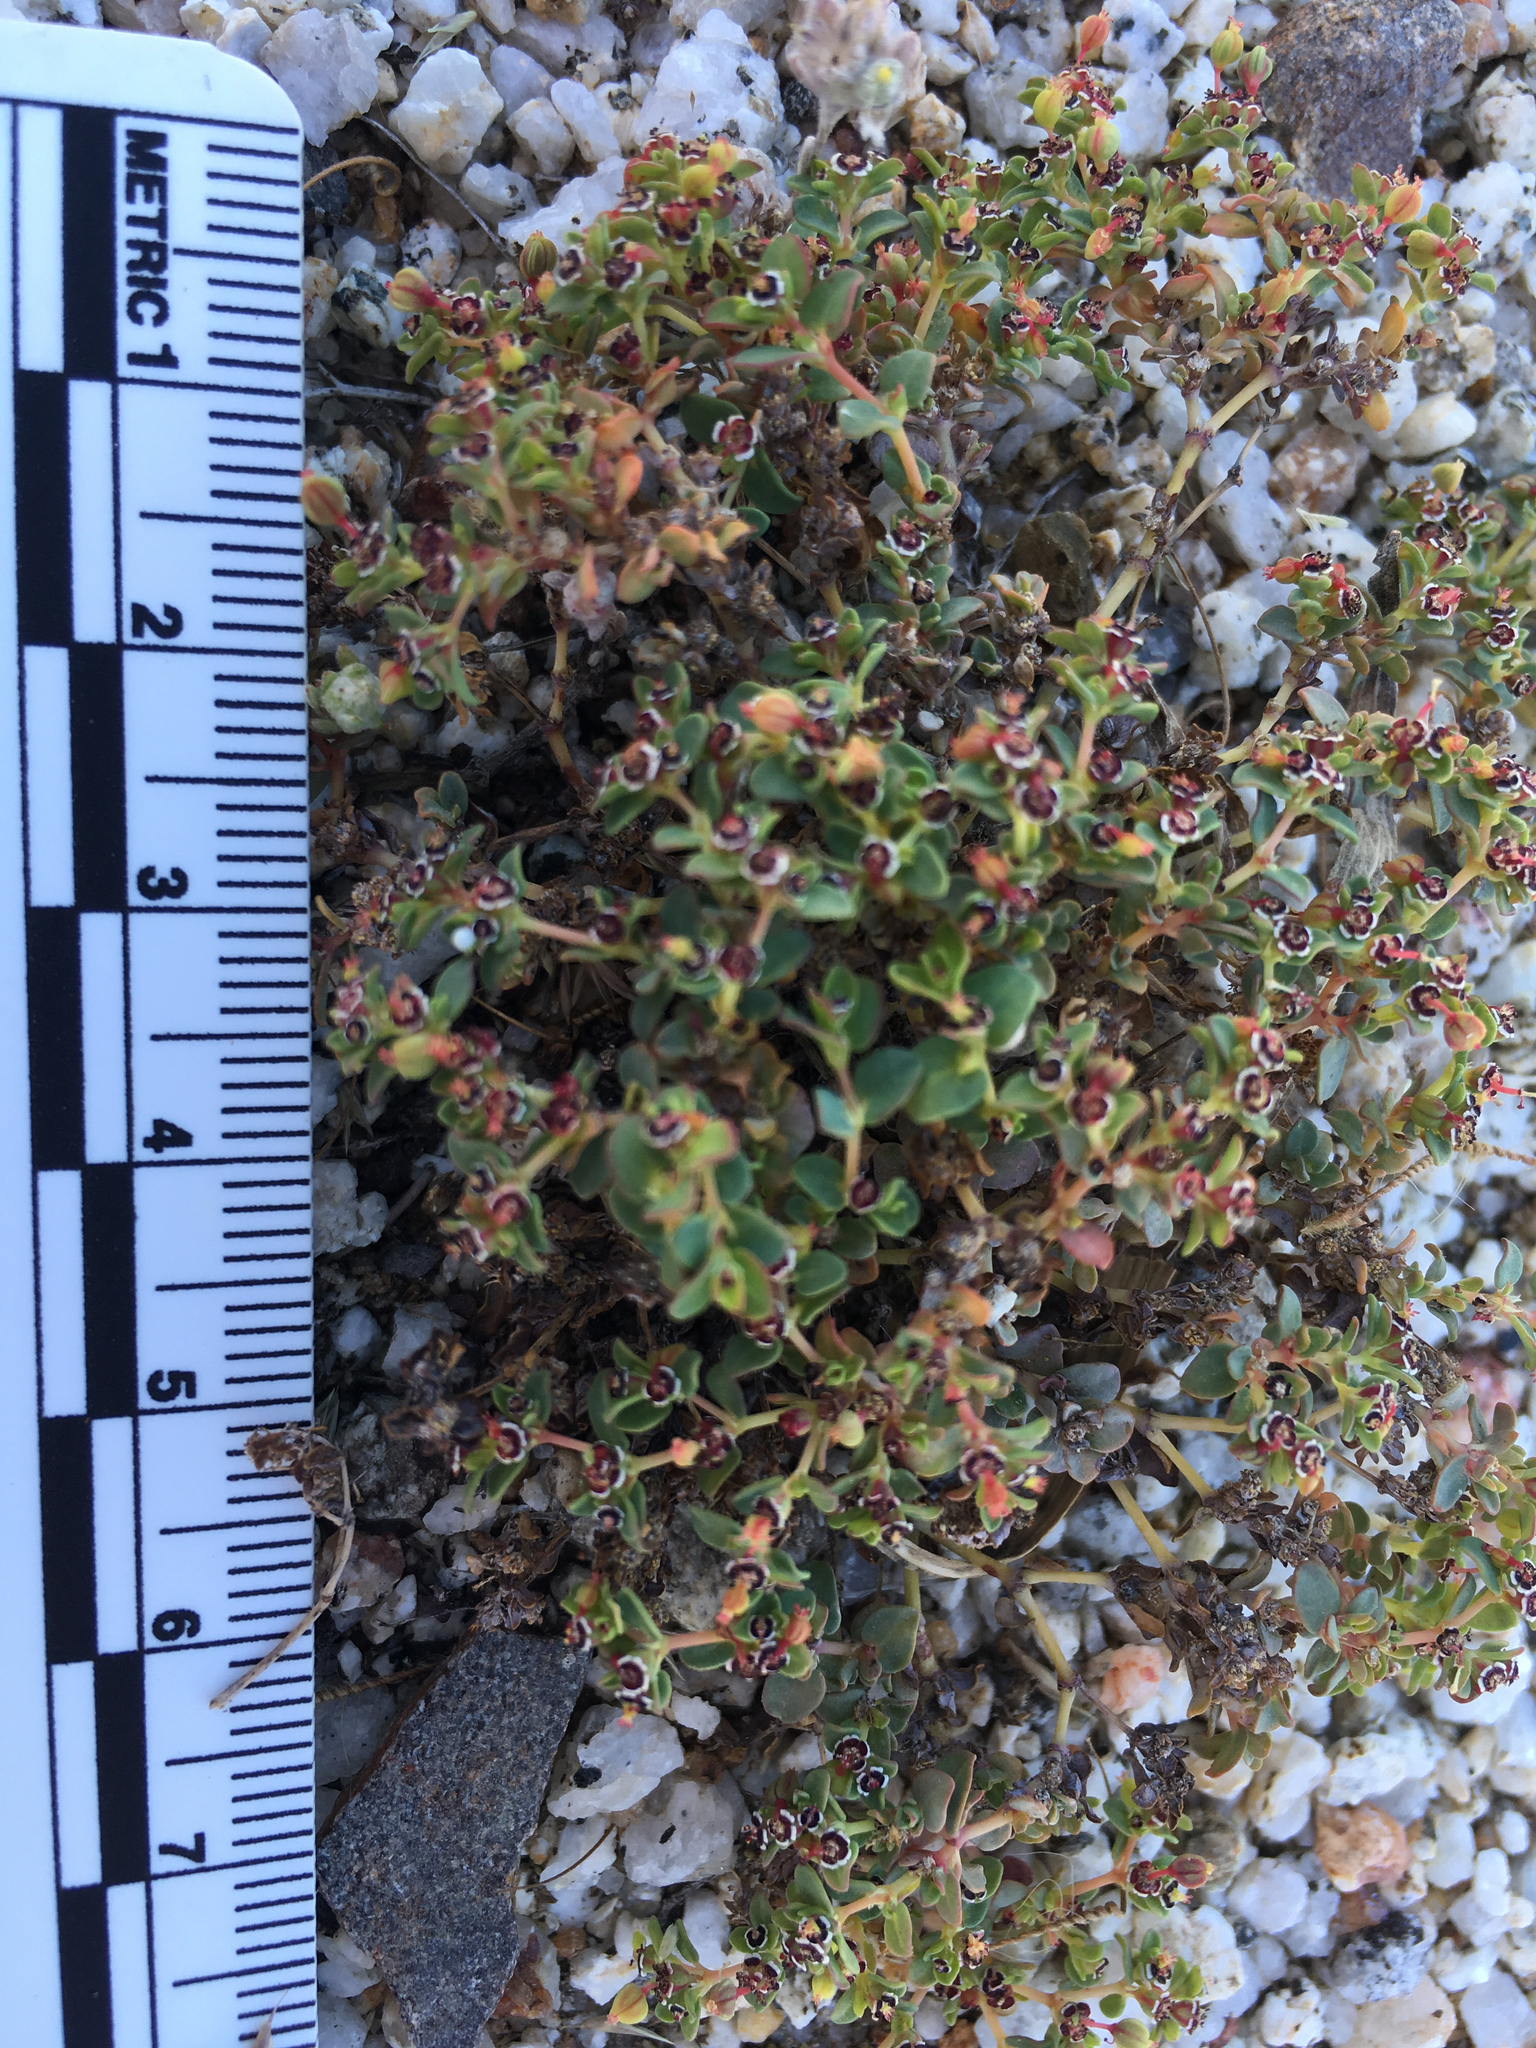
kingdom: Plantae
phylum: Tracheophyta
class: Magnoliopsida
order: Malpighiales
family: Euphorbiaceae
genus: Euphorbia
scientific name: Euphorbia polycarpa
